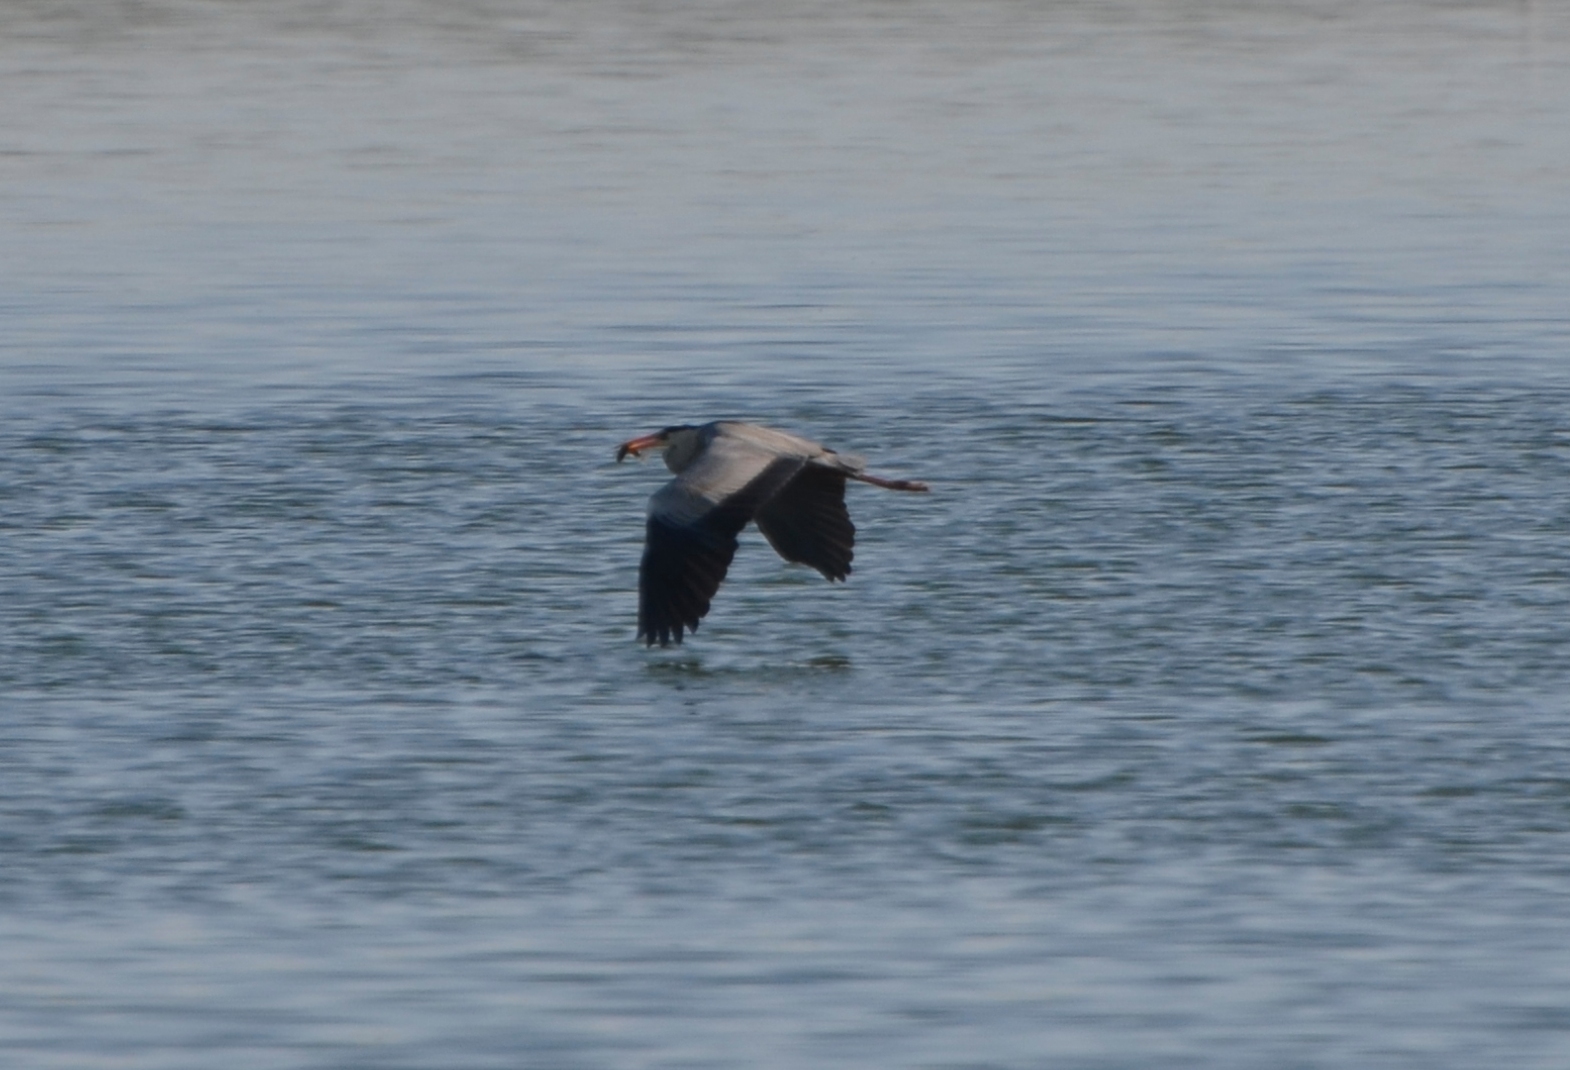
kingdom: Animalia
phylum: Chordata
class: Aves
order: Pelecaniformes
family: Ardeidae
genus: Ardea
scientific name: Ardea cinerea
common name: Grey heron
